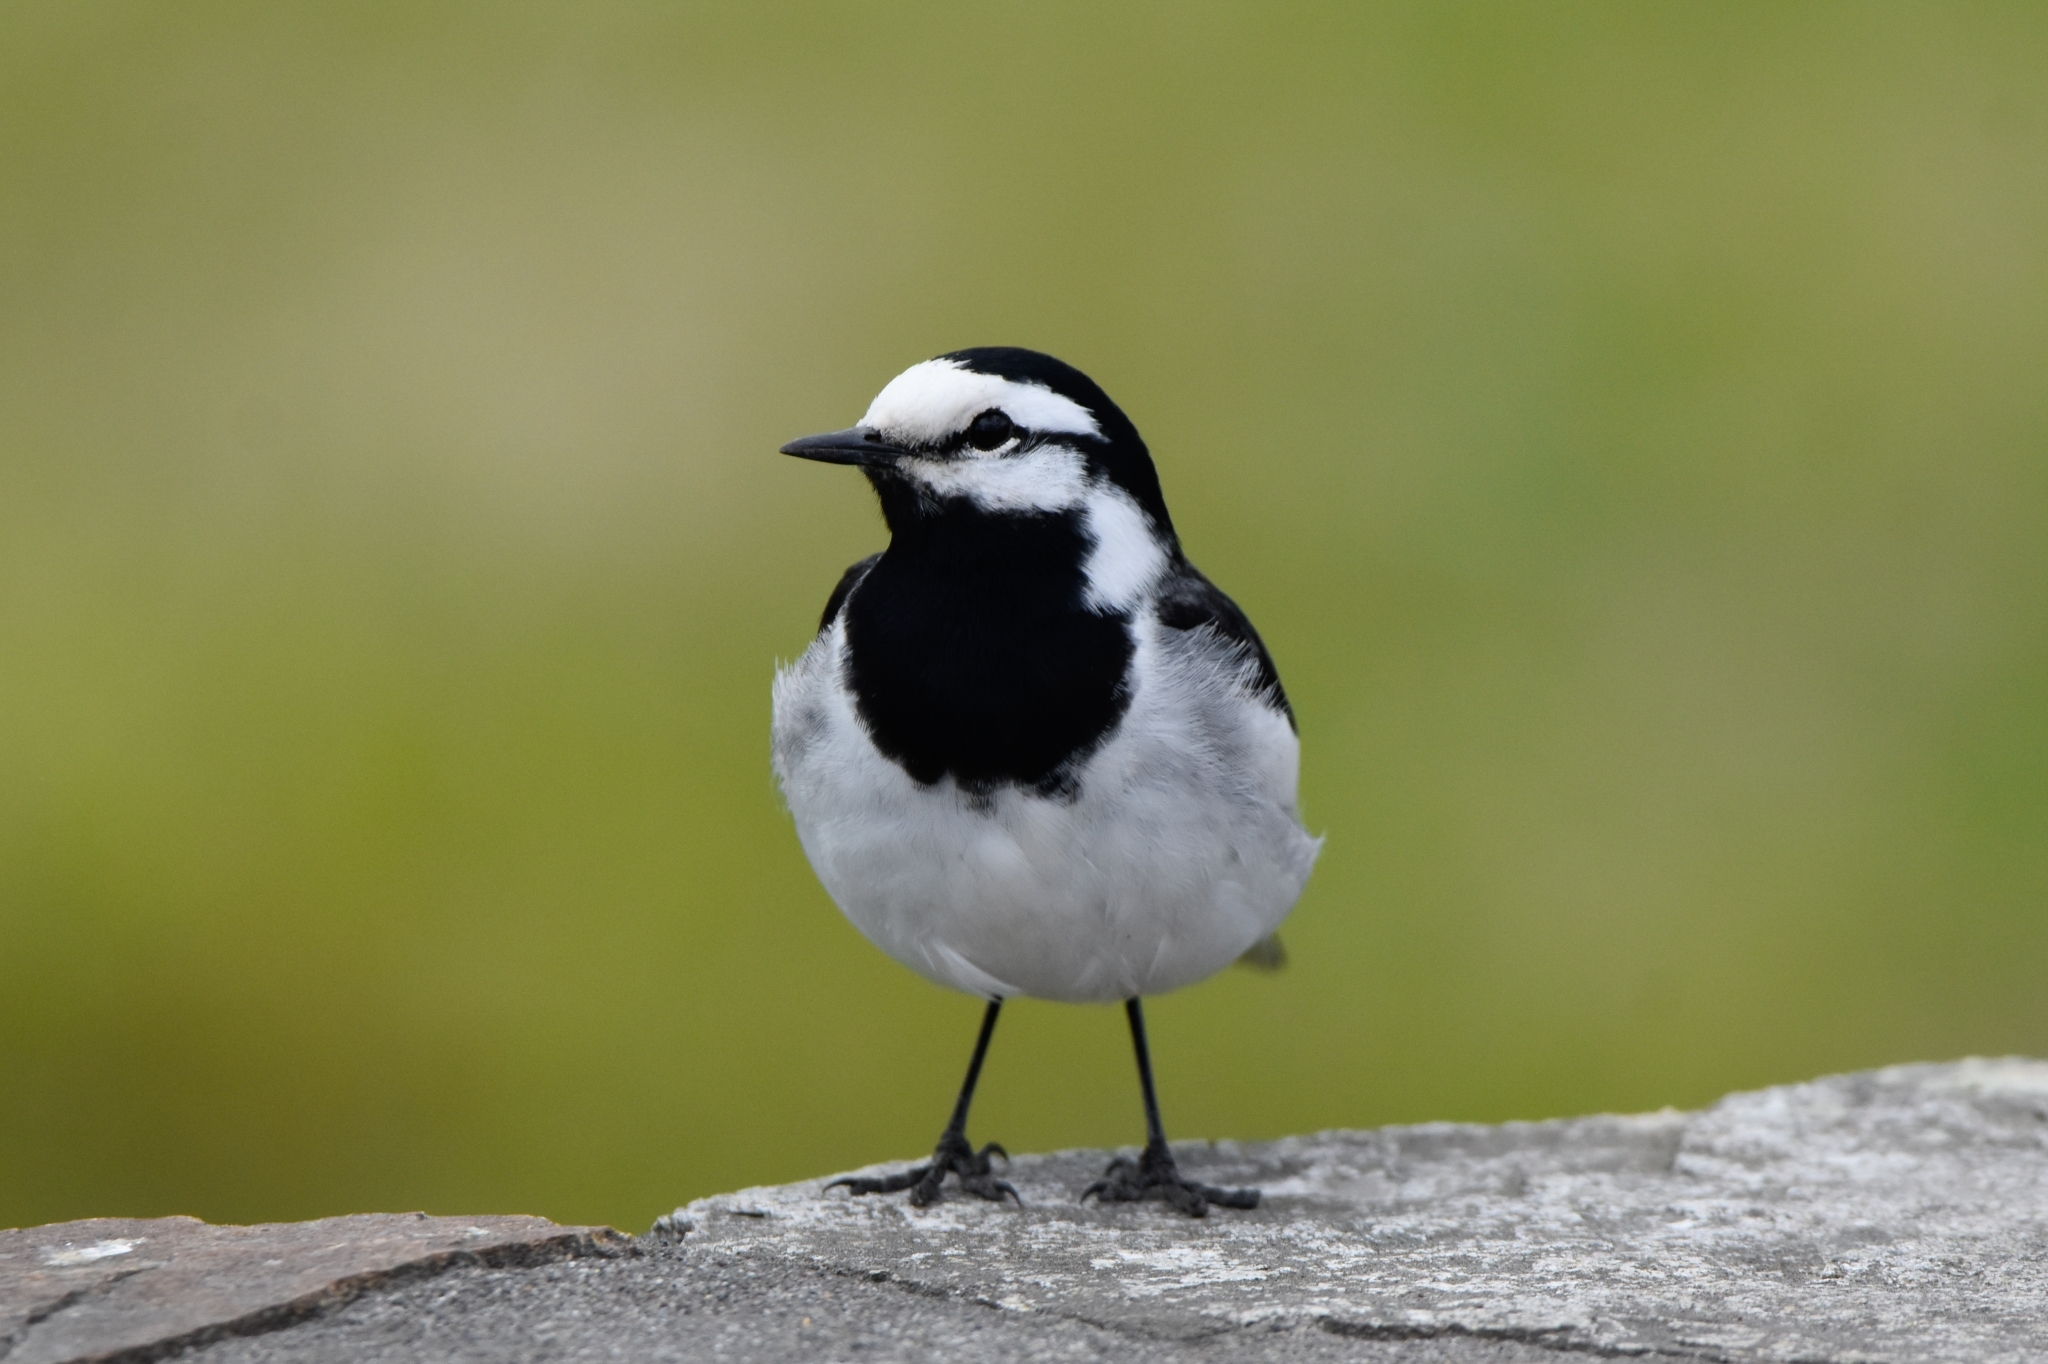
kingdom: Animalia
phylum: Chordata
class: Aves
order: Passeriformes
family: Motacillidae
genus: Motacilla
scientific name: Motacilla alba
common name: White wagtail
